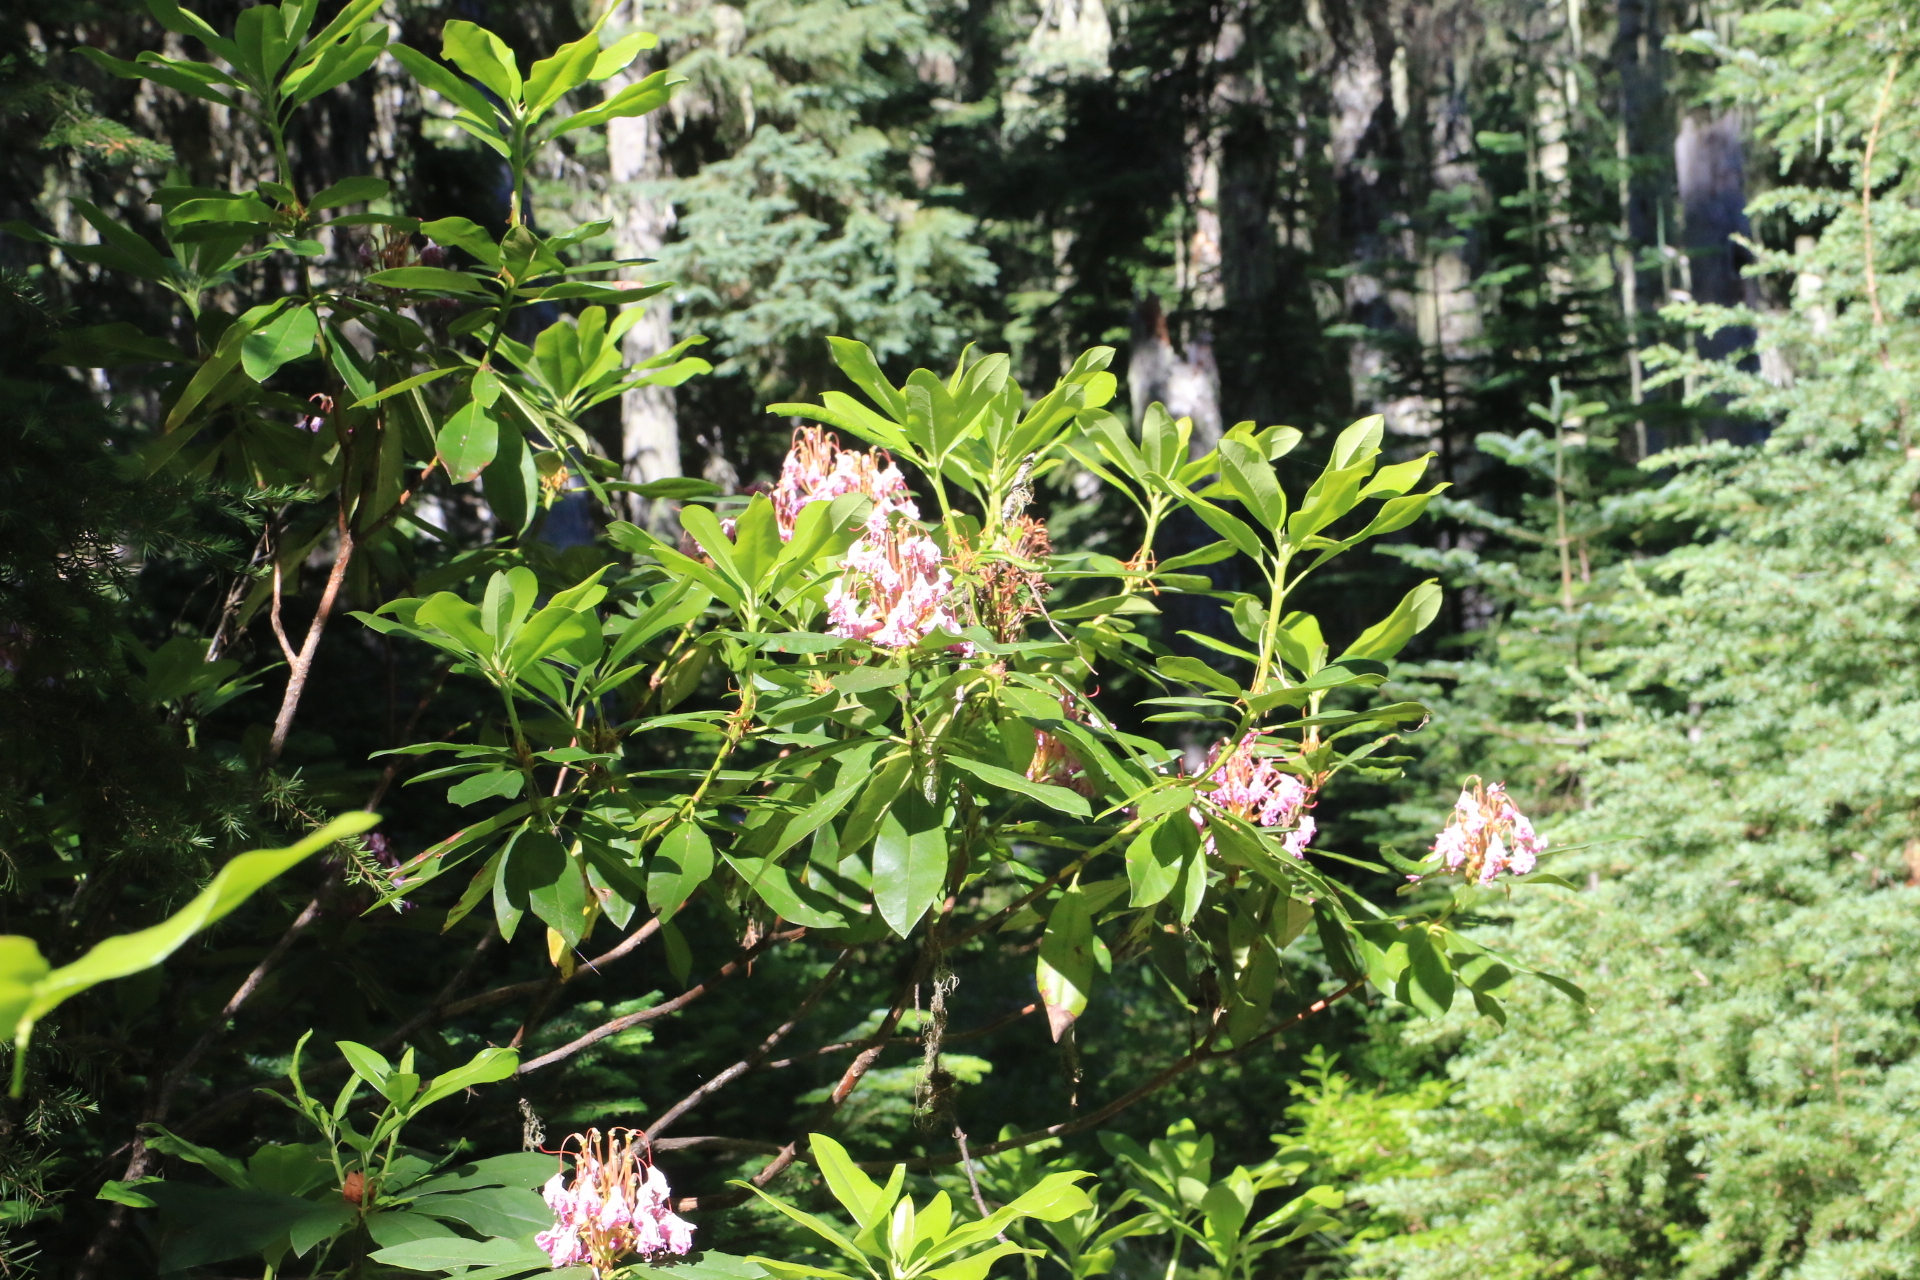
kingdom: Plantae
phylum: Tracheophyta
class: Magnoliopsida
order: Ericales
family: Ericaceae
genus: Rhododendron
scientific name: Rhododendron macrophyllum
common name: California rose bay
